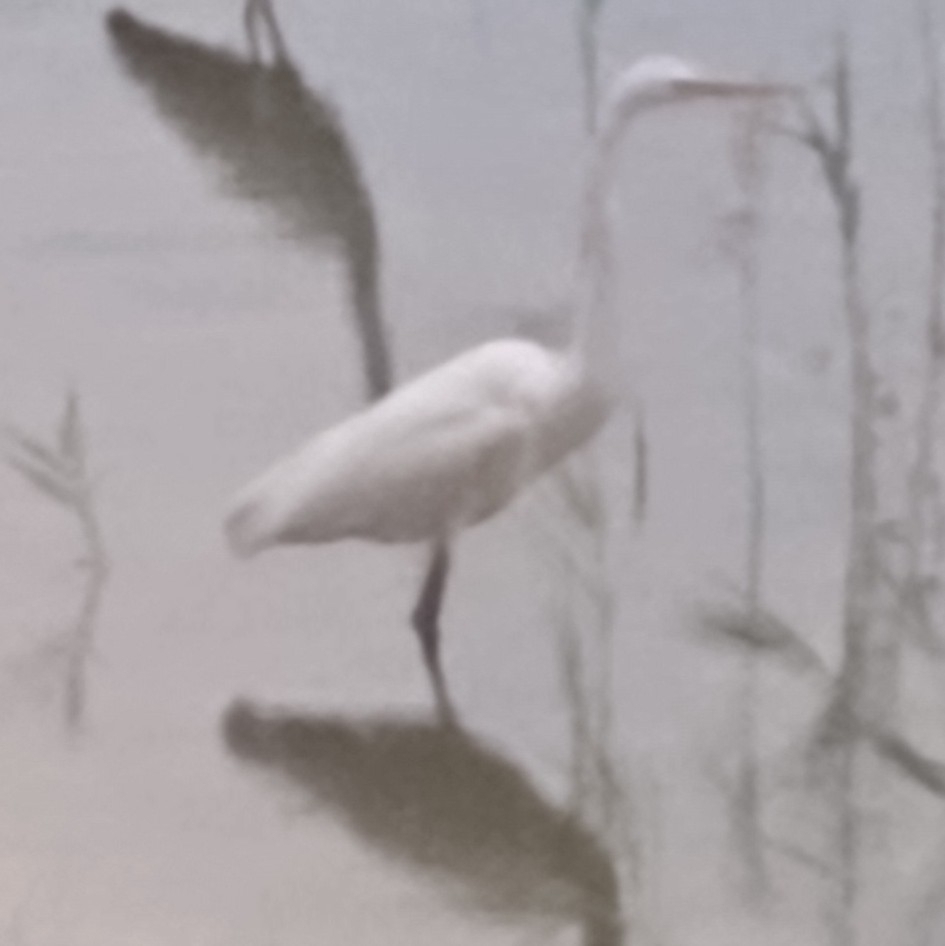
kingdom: Animalia
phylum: Chordata
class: Aves
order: Pelecaniformes
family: Ardeidae
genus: Ardea
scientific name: Ardea alba
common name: Great egret
